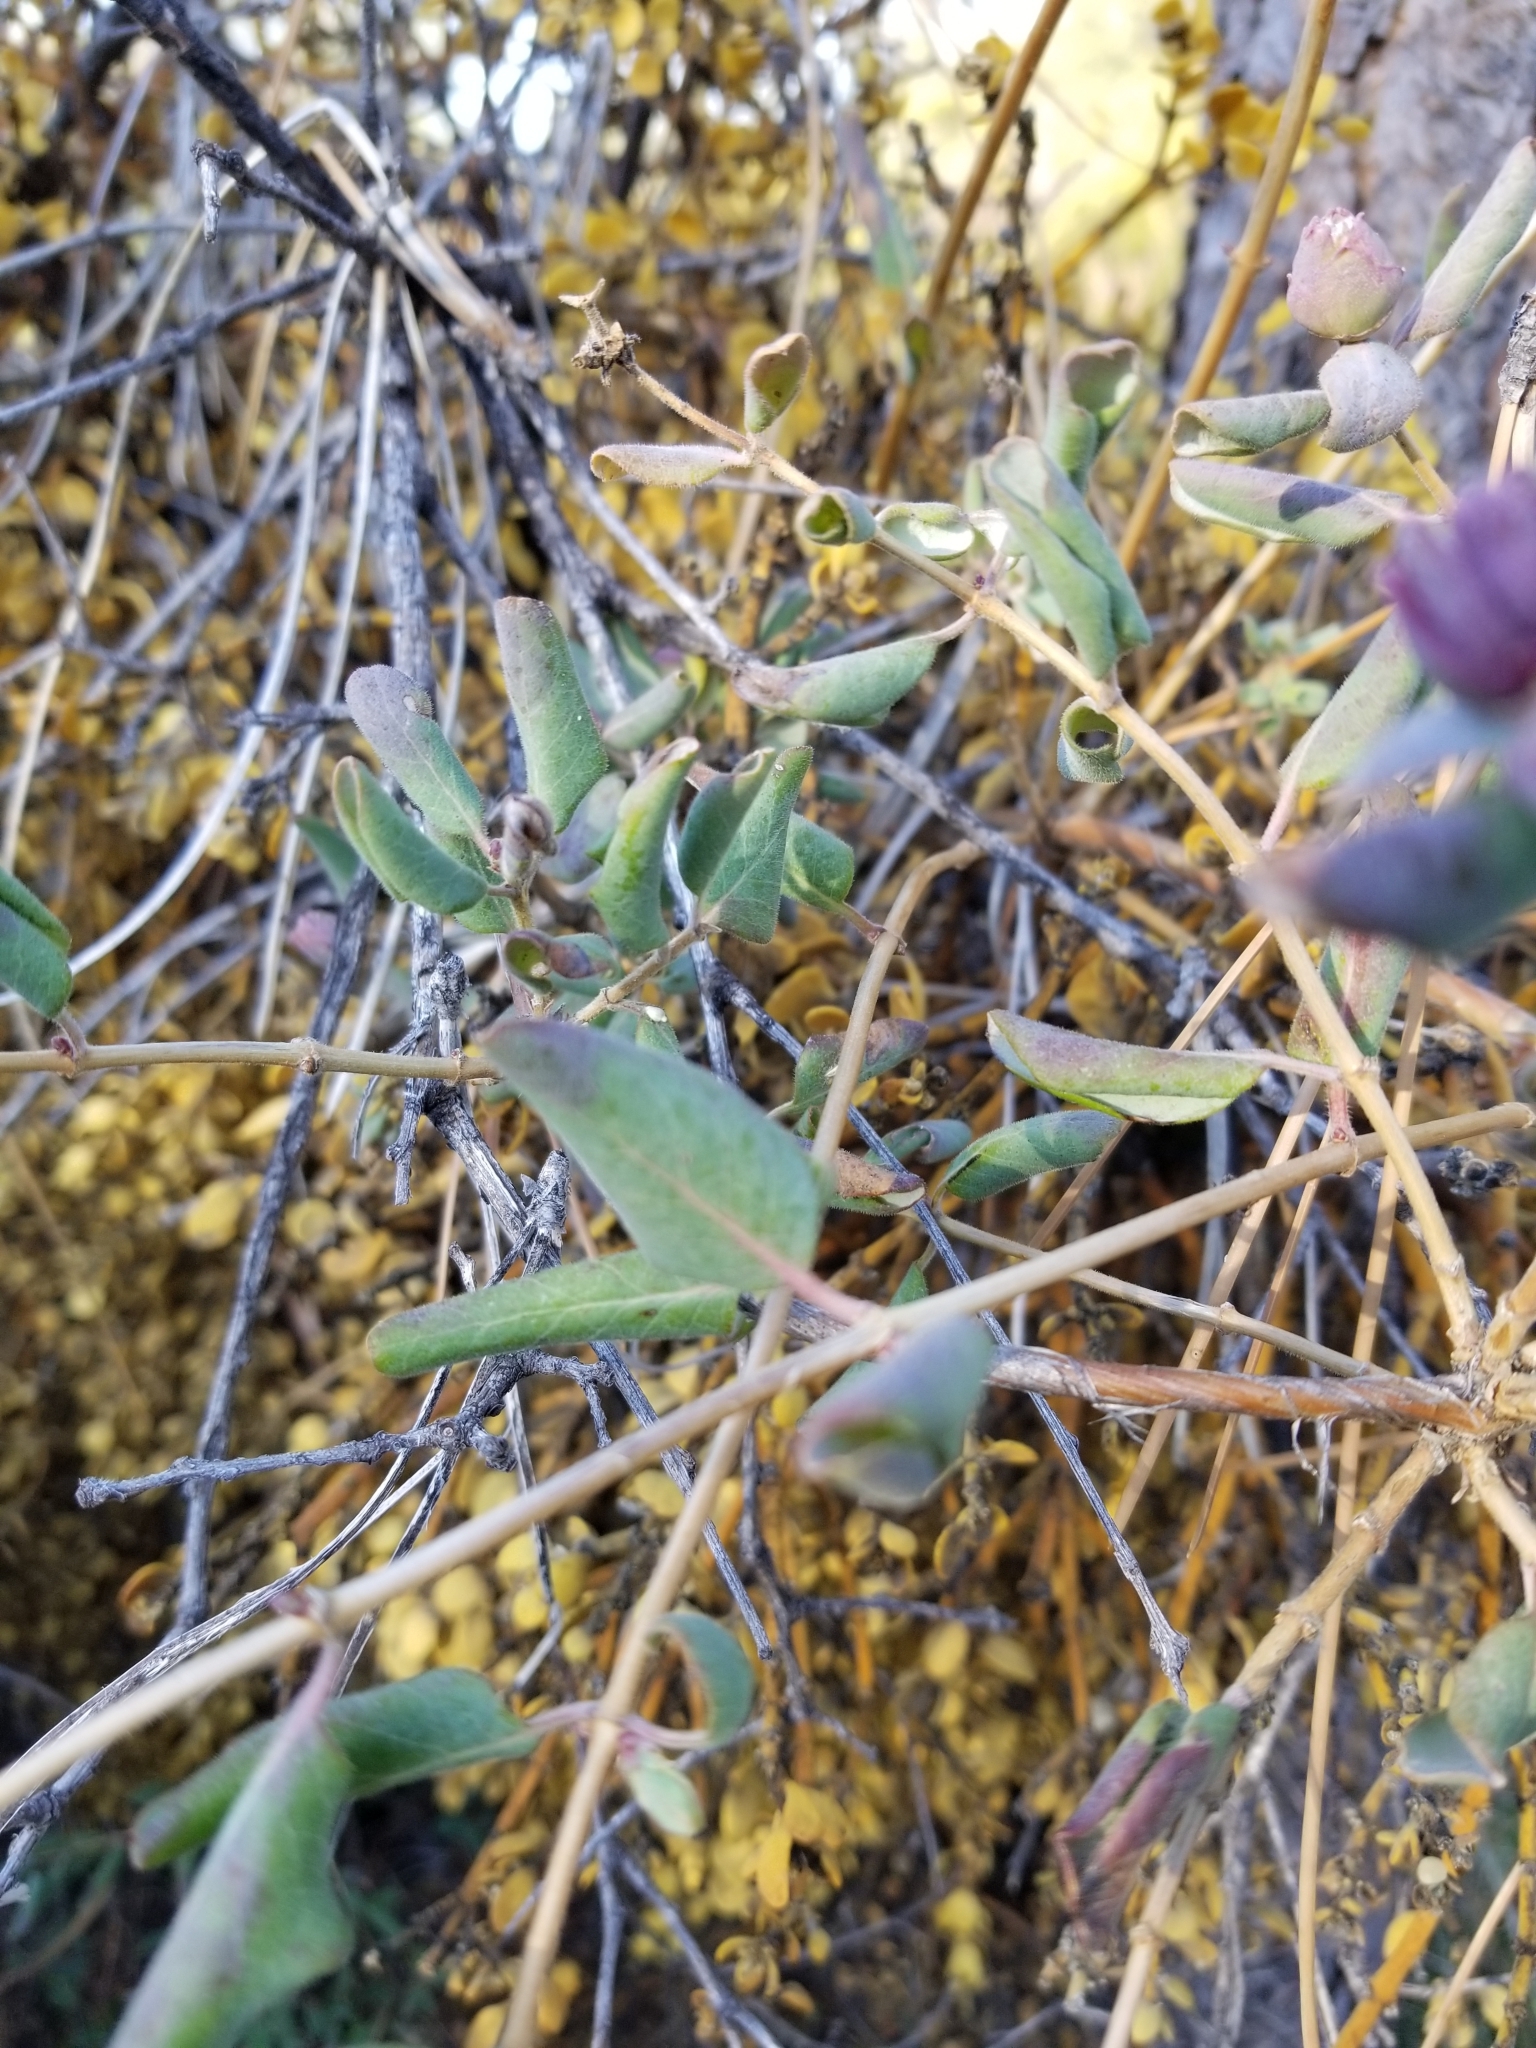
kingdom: Plantae
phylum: Tracheophyta
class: Magnoliopsida
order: Dipsacales
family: Caprifoliaceae
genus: Lonicera
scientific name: Lonicera subspicata
